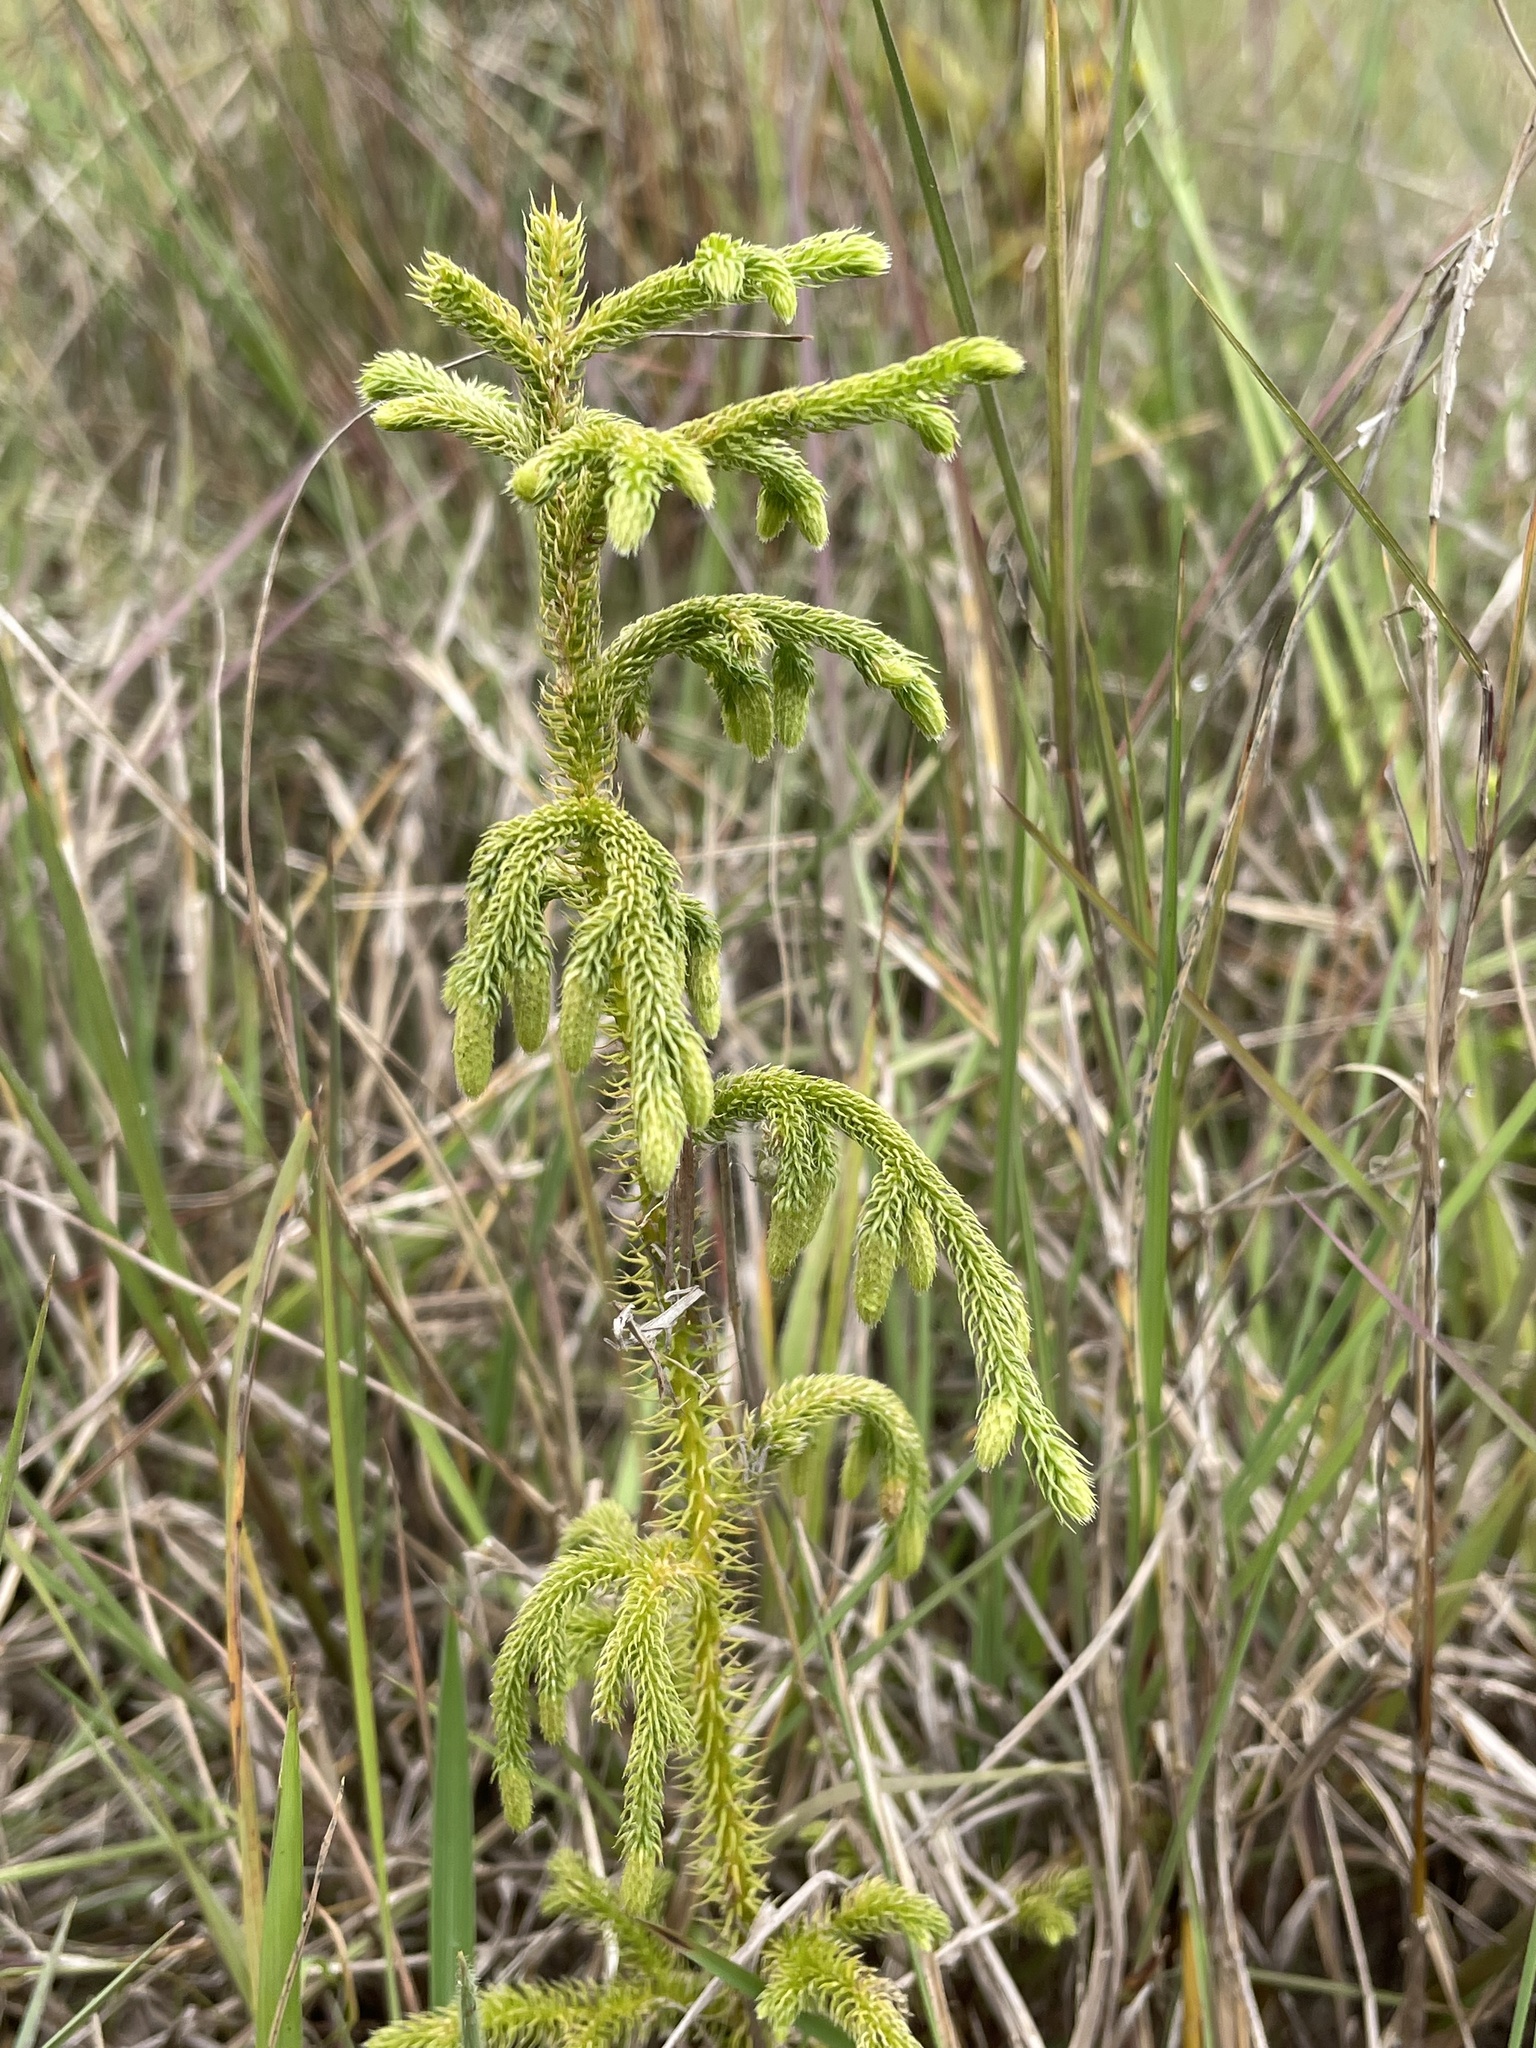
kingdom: Plantae
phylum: Tracheophyta
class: Lycopodiopsida
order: Lycopodiales
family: Lycopodiaceae
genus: Palhinhaea
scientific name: Palhinhaea cernua
